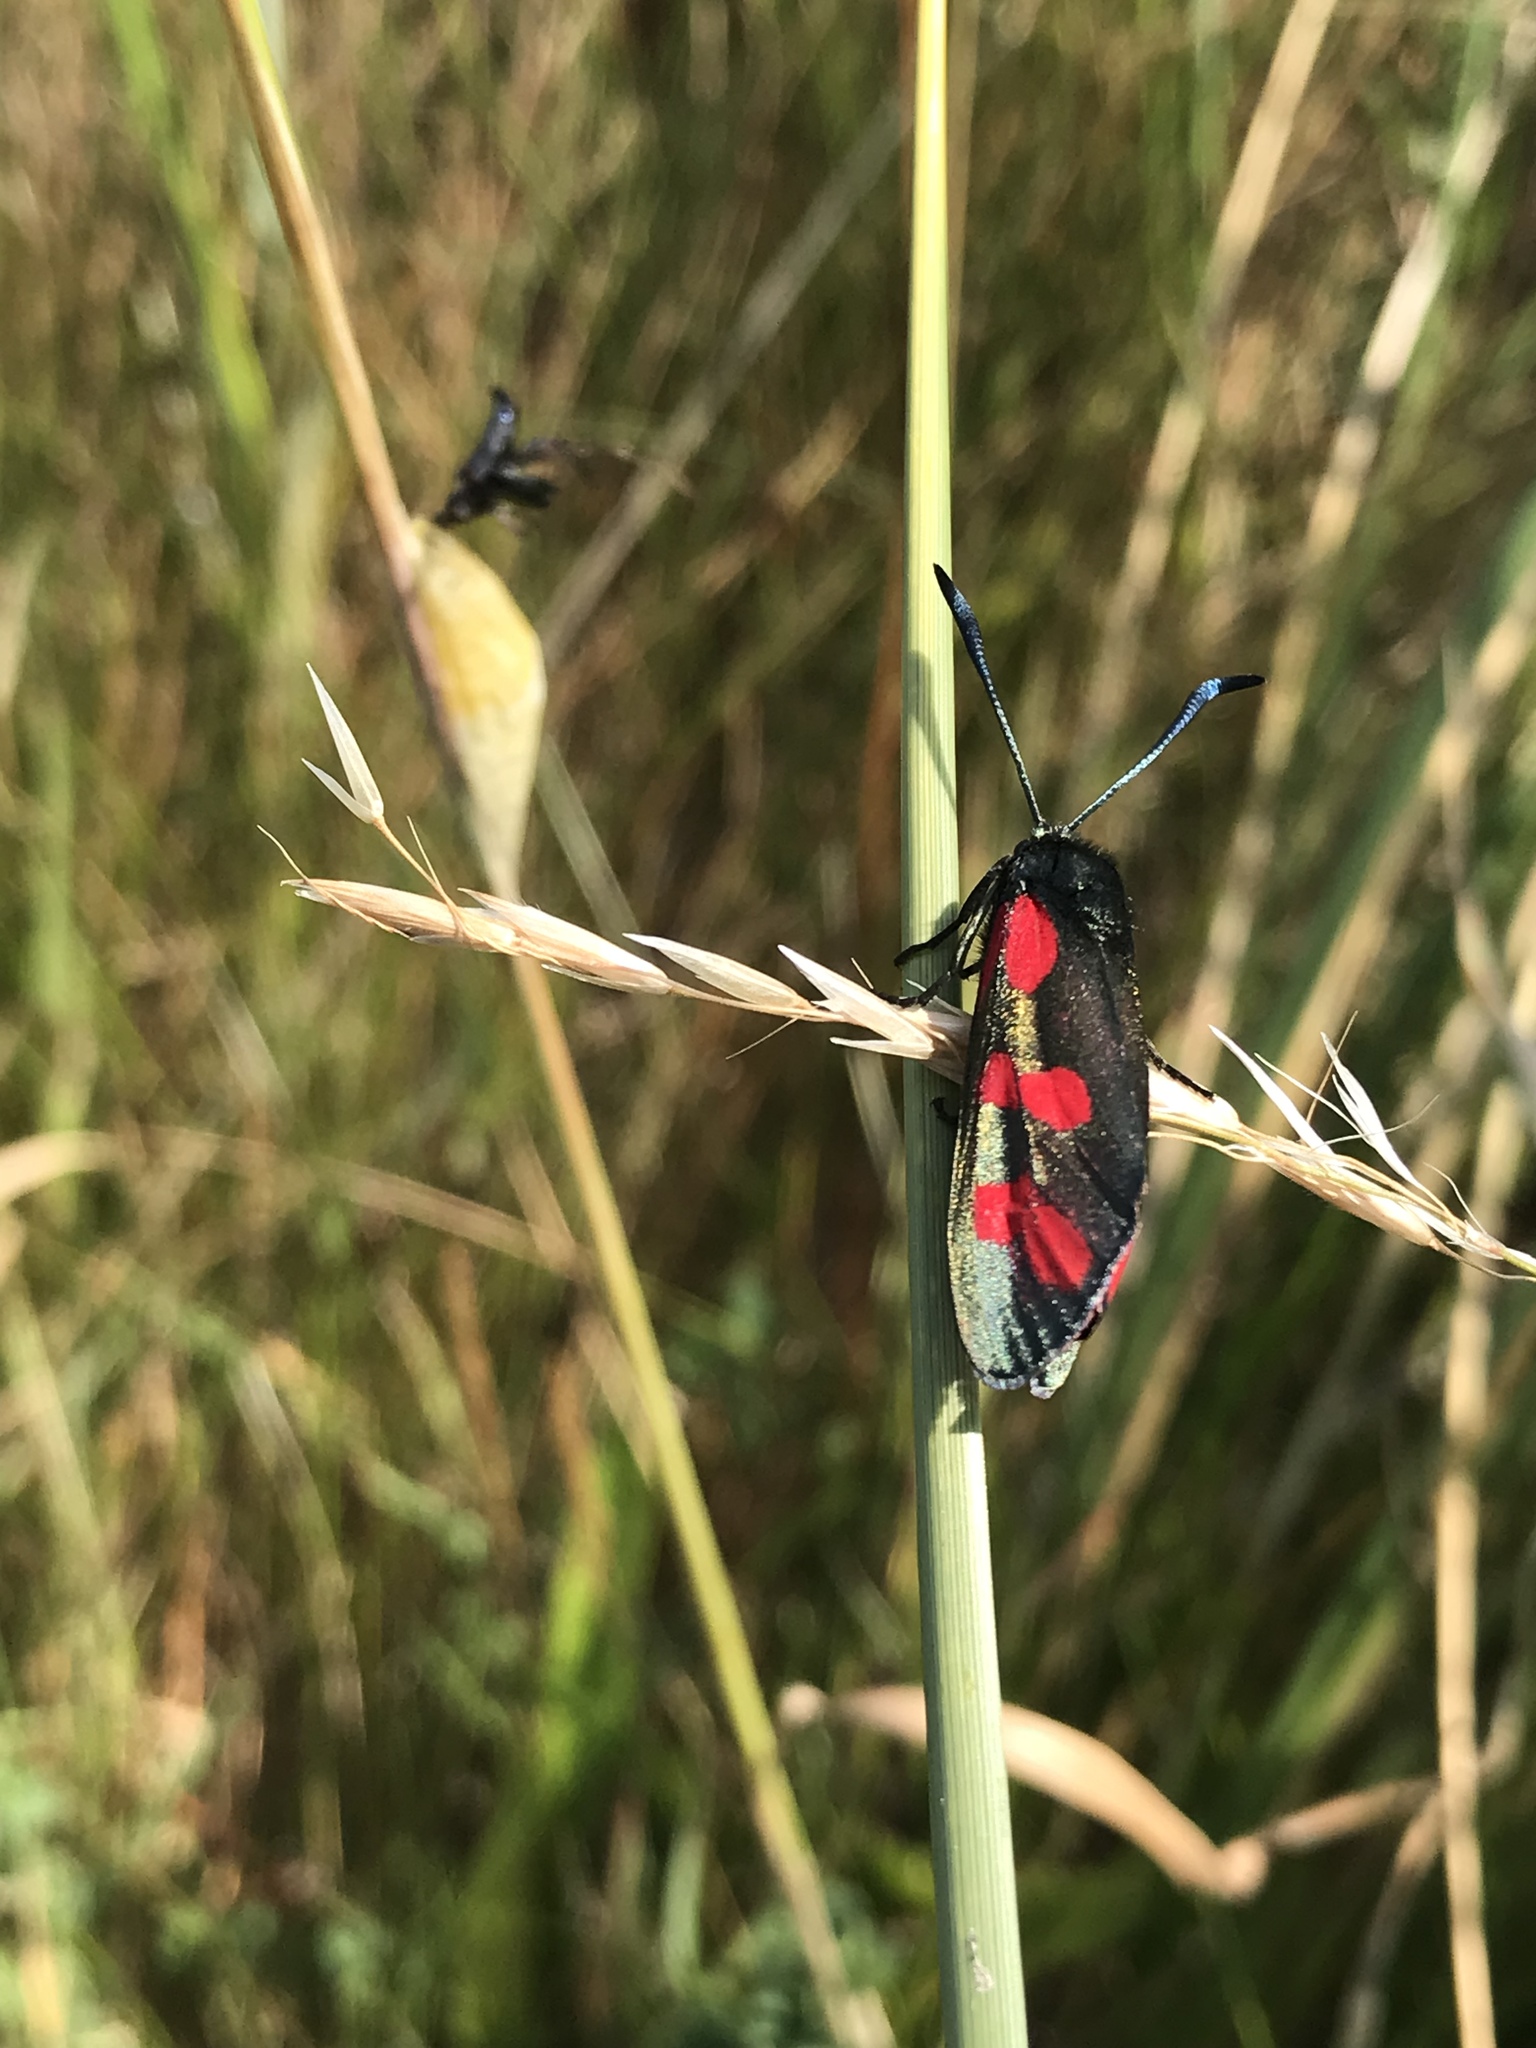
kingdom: Animalia
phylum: Arthropoda
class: Insecta
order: Lepidoptera
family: Zygaenidae
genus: Zygaena
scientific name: Zygaena filipendulae
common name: Six-spot burnet
